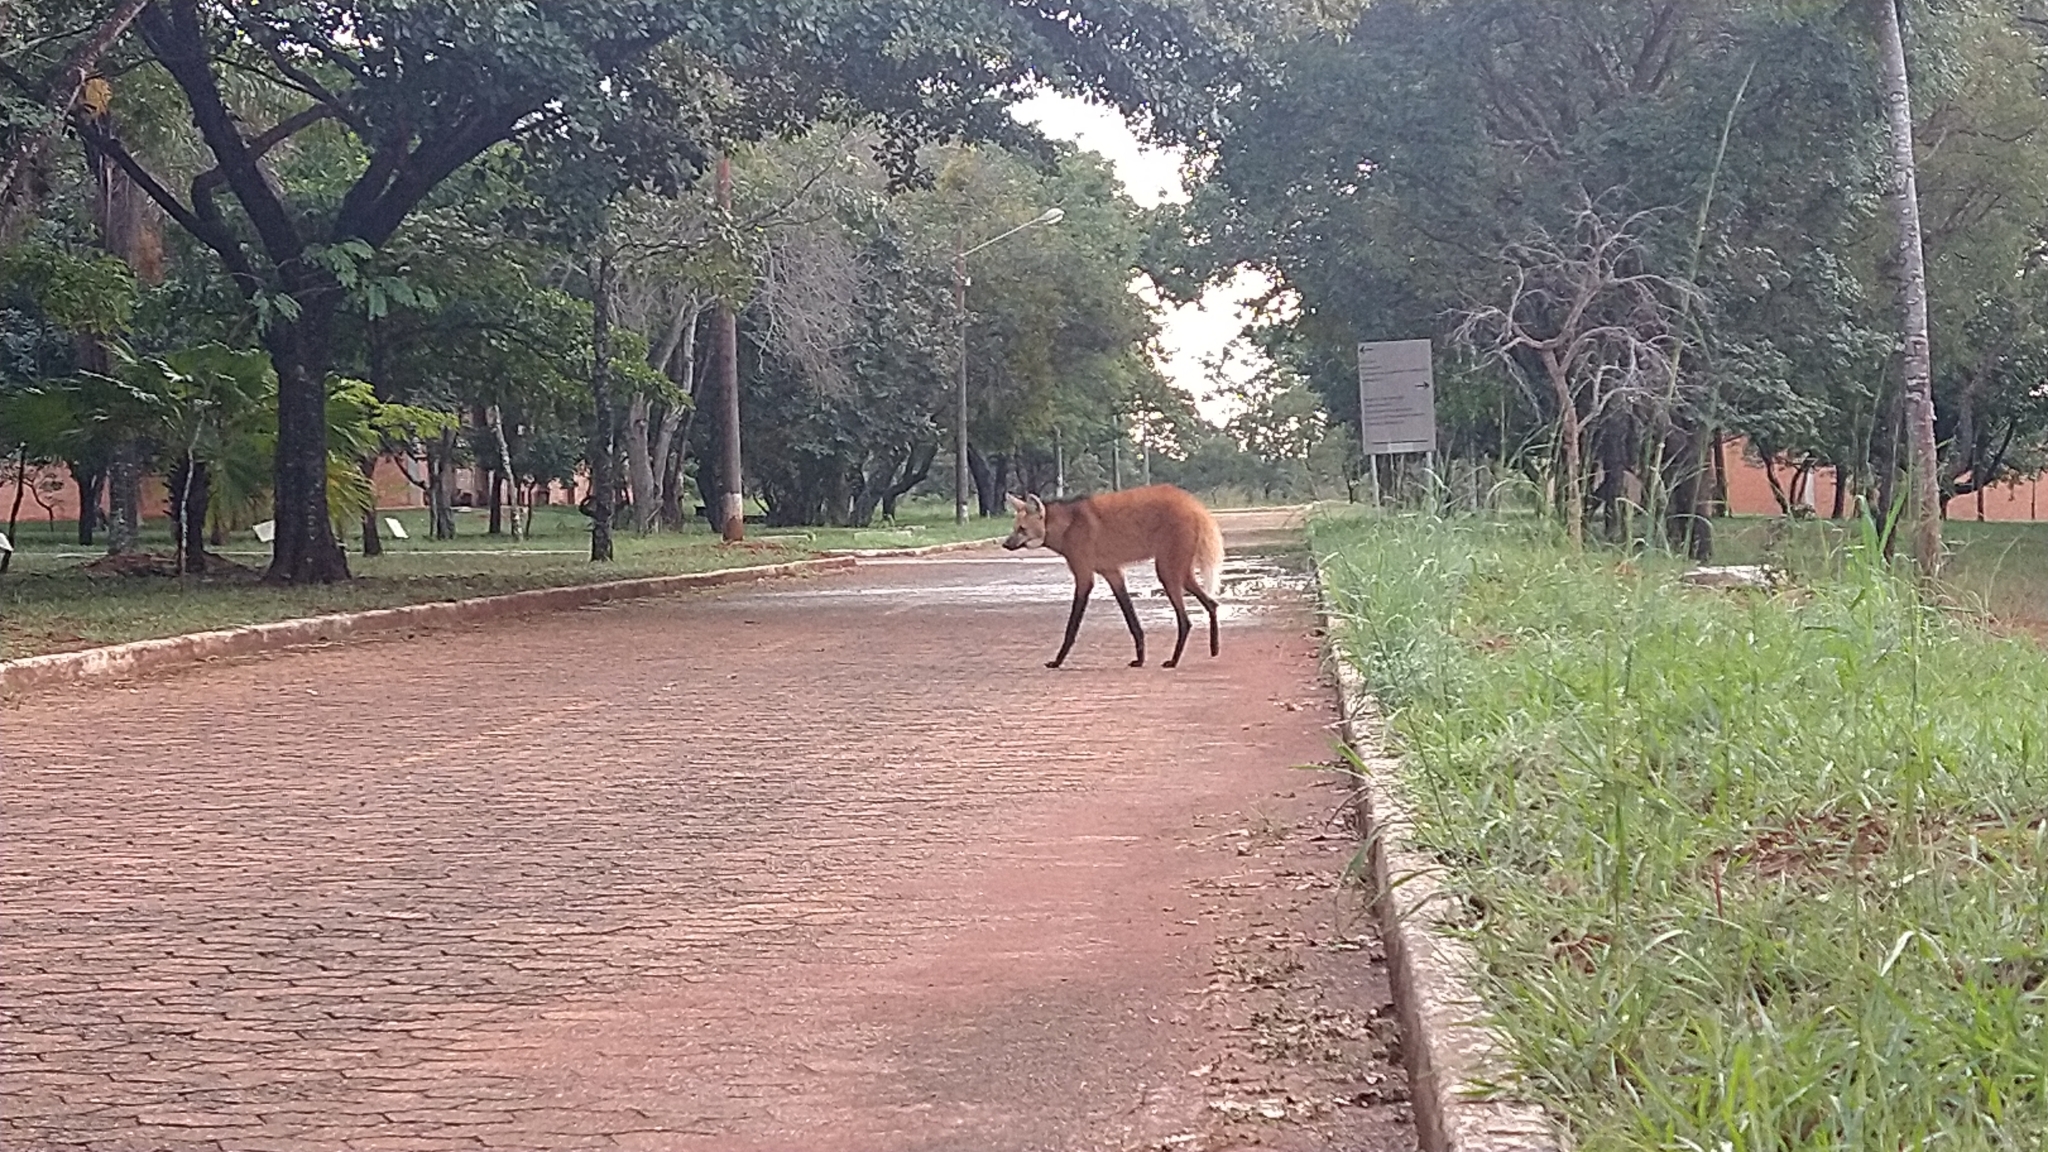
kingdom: Animalia
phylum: Chordata
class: Mammalia
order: Carnivora
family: Canidae
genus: Chrysocyon
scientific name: Chrysocyon brachyurus
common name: Maned wolf
